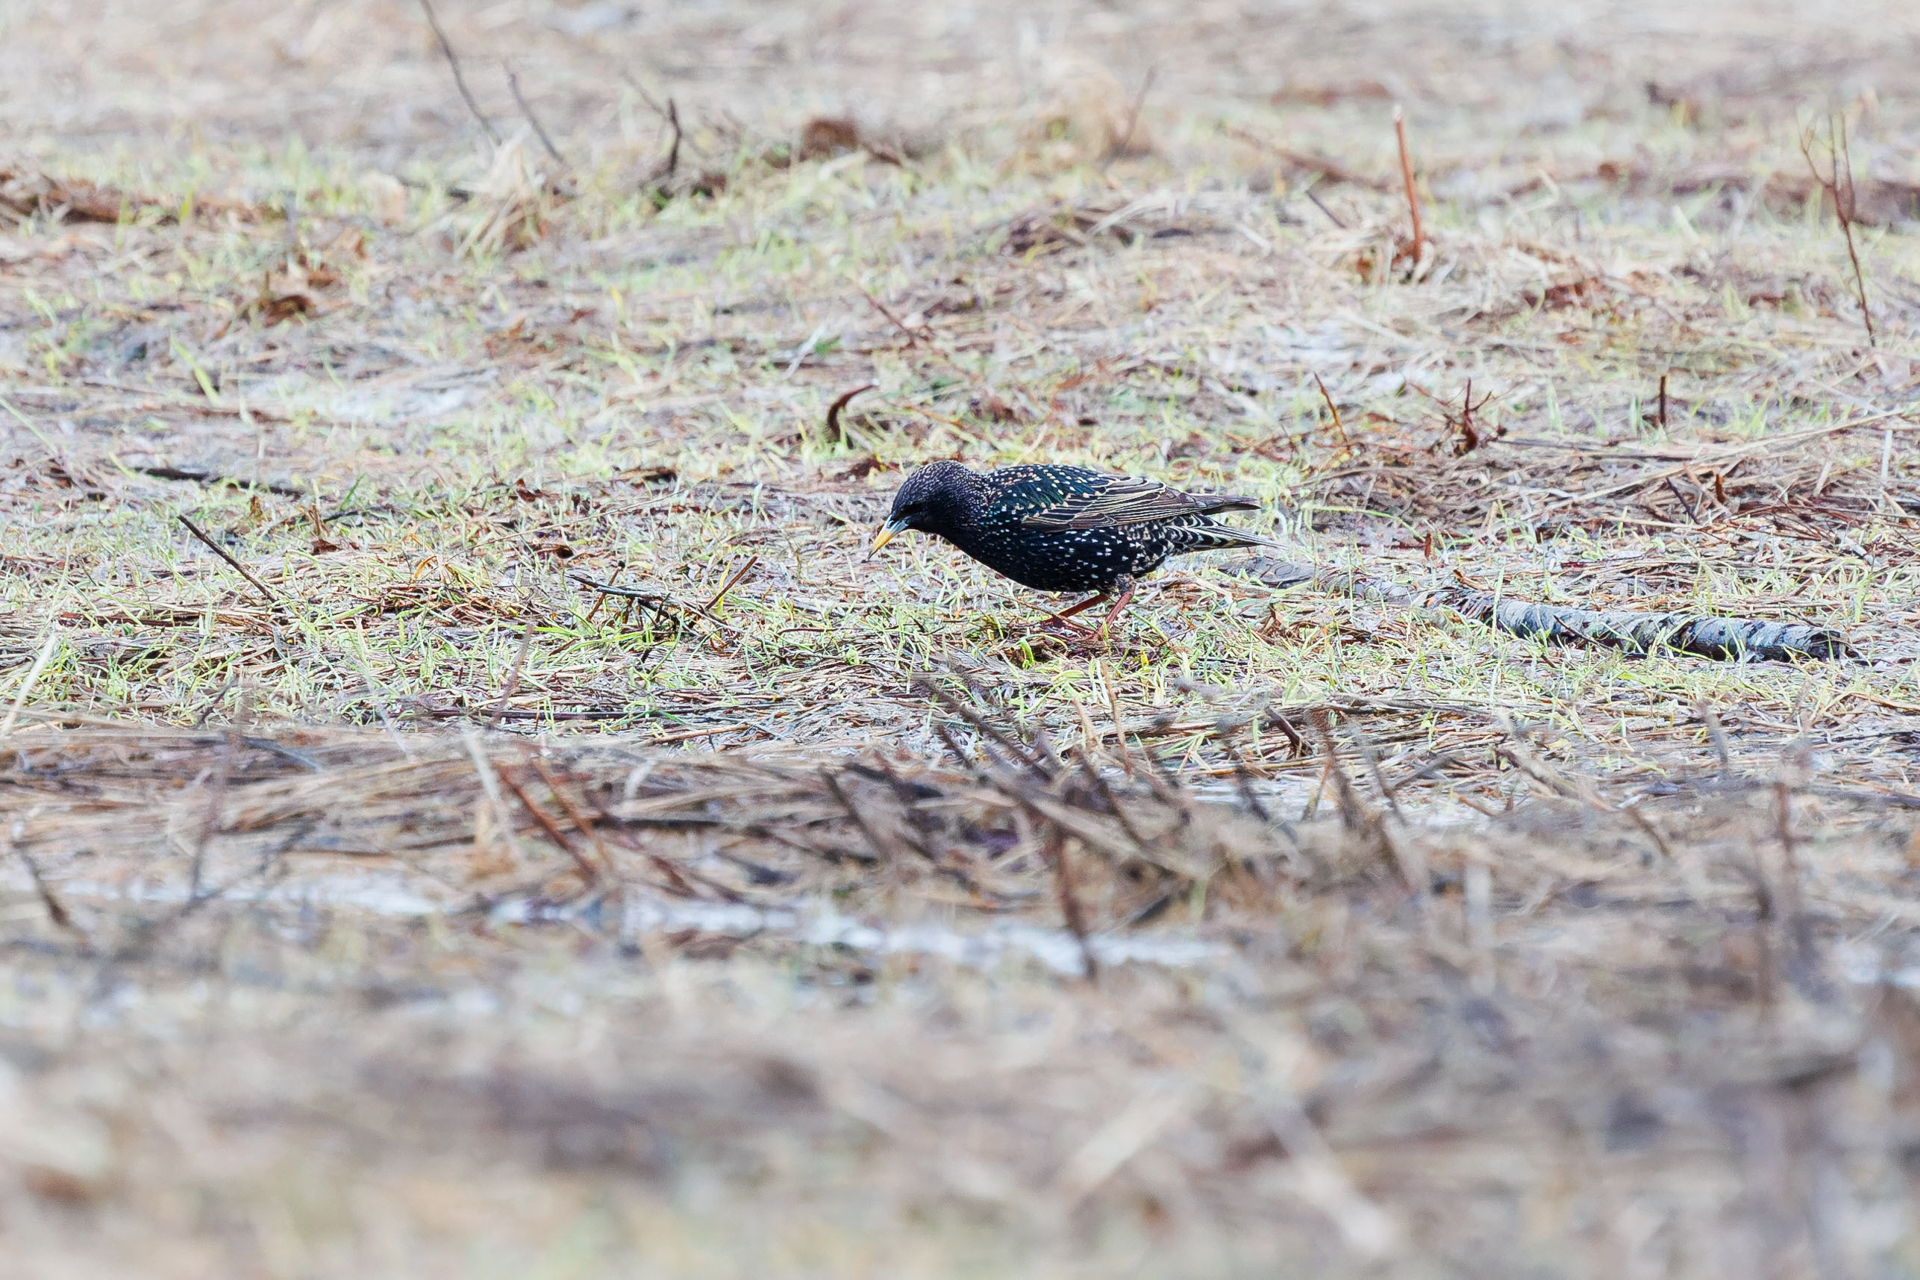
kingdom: Animalia
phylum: Chordata
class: Aves
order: Passeriformes
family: Sturnidae
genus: Sturnus
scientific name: Sturnus vulgaris
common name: Common starling
